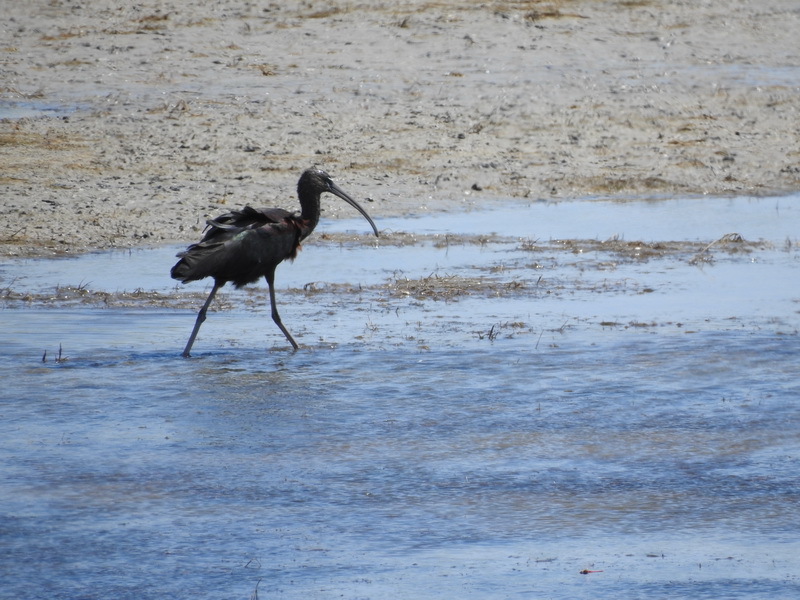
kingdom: Animalia
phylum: Chordata
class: Aves
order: Pelecaniformes
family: Threskiornithidae
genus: Plegadis
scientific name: Plegadis falcinellus
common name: Glossy ibis
